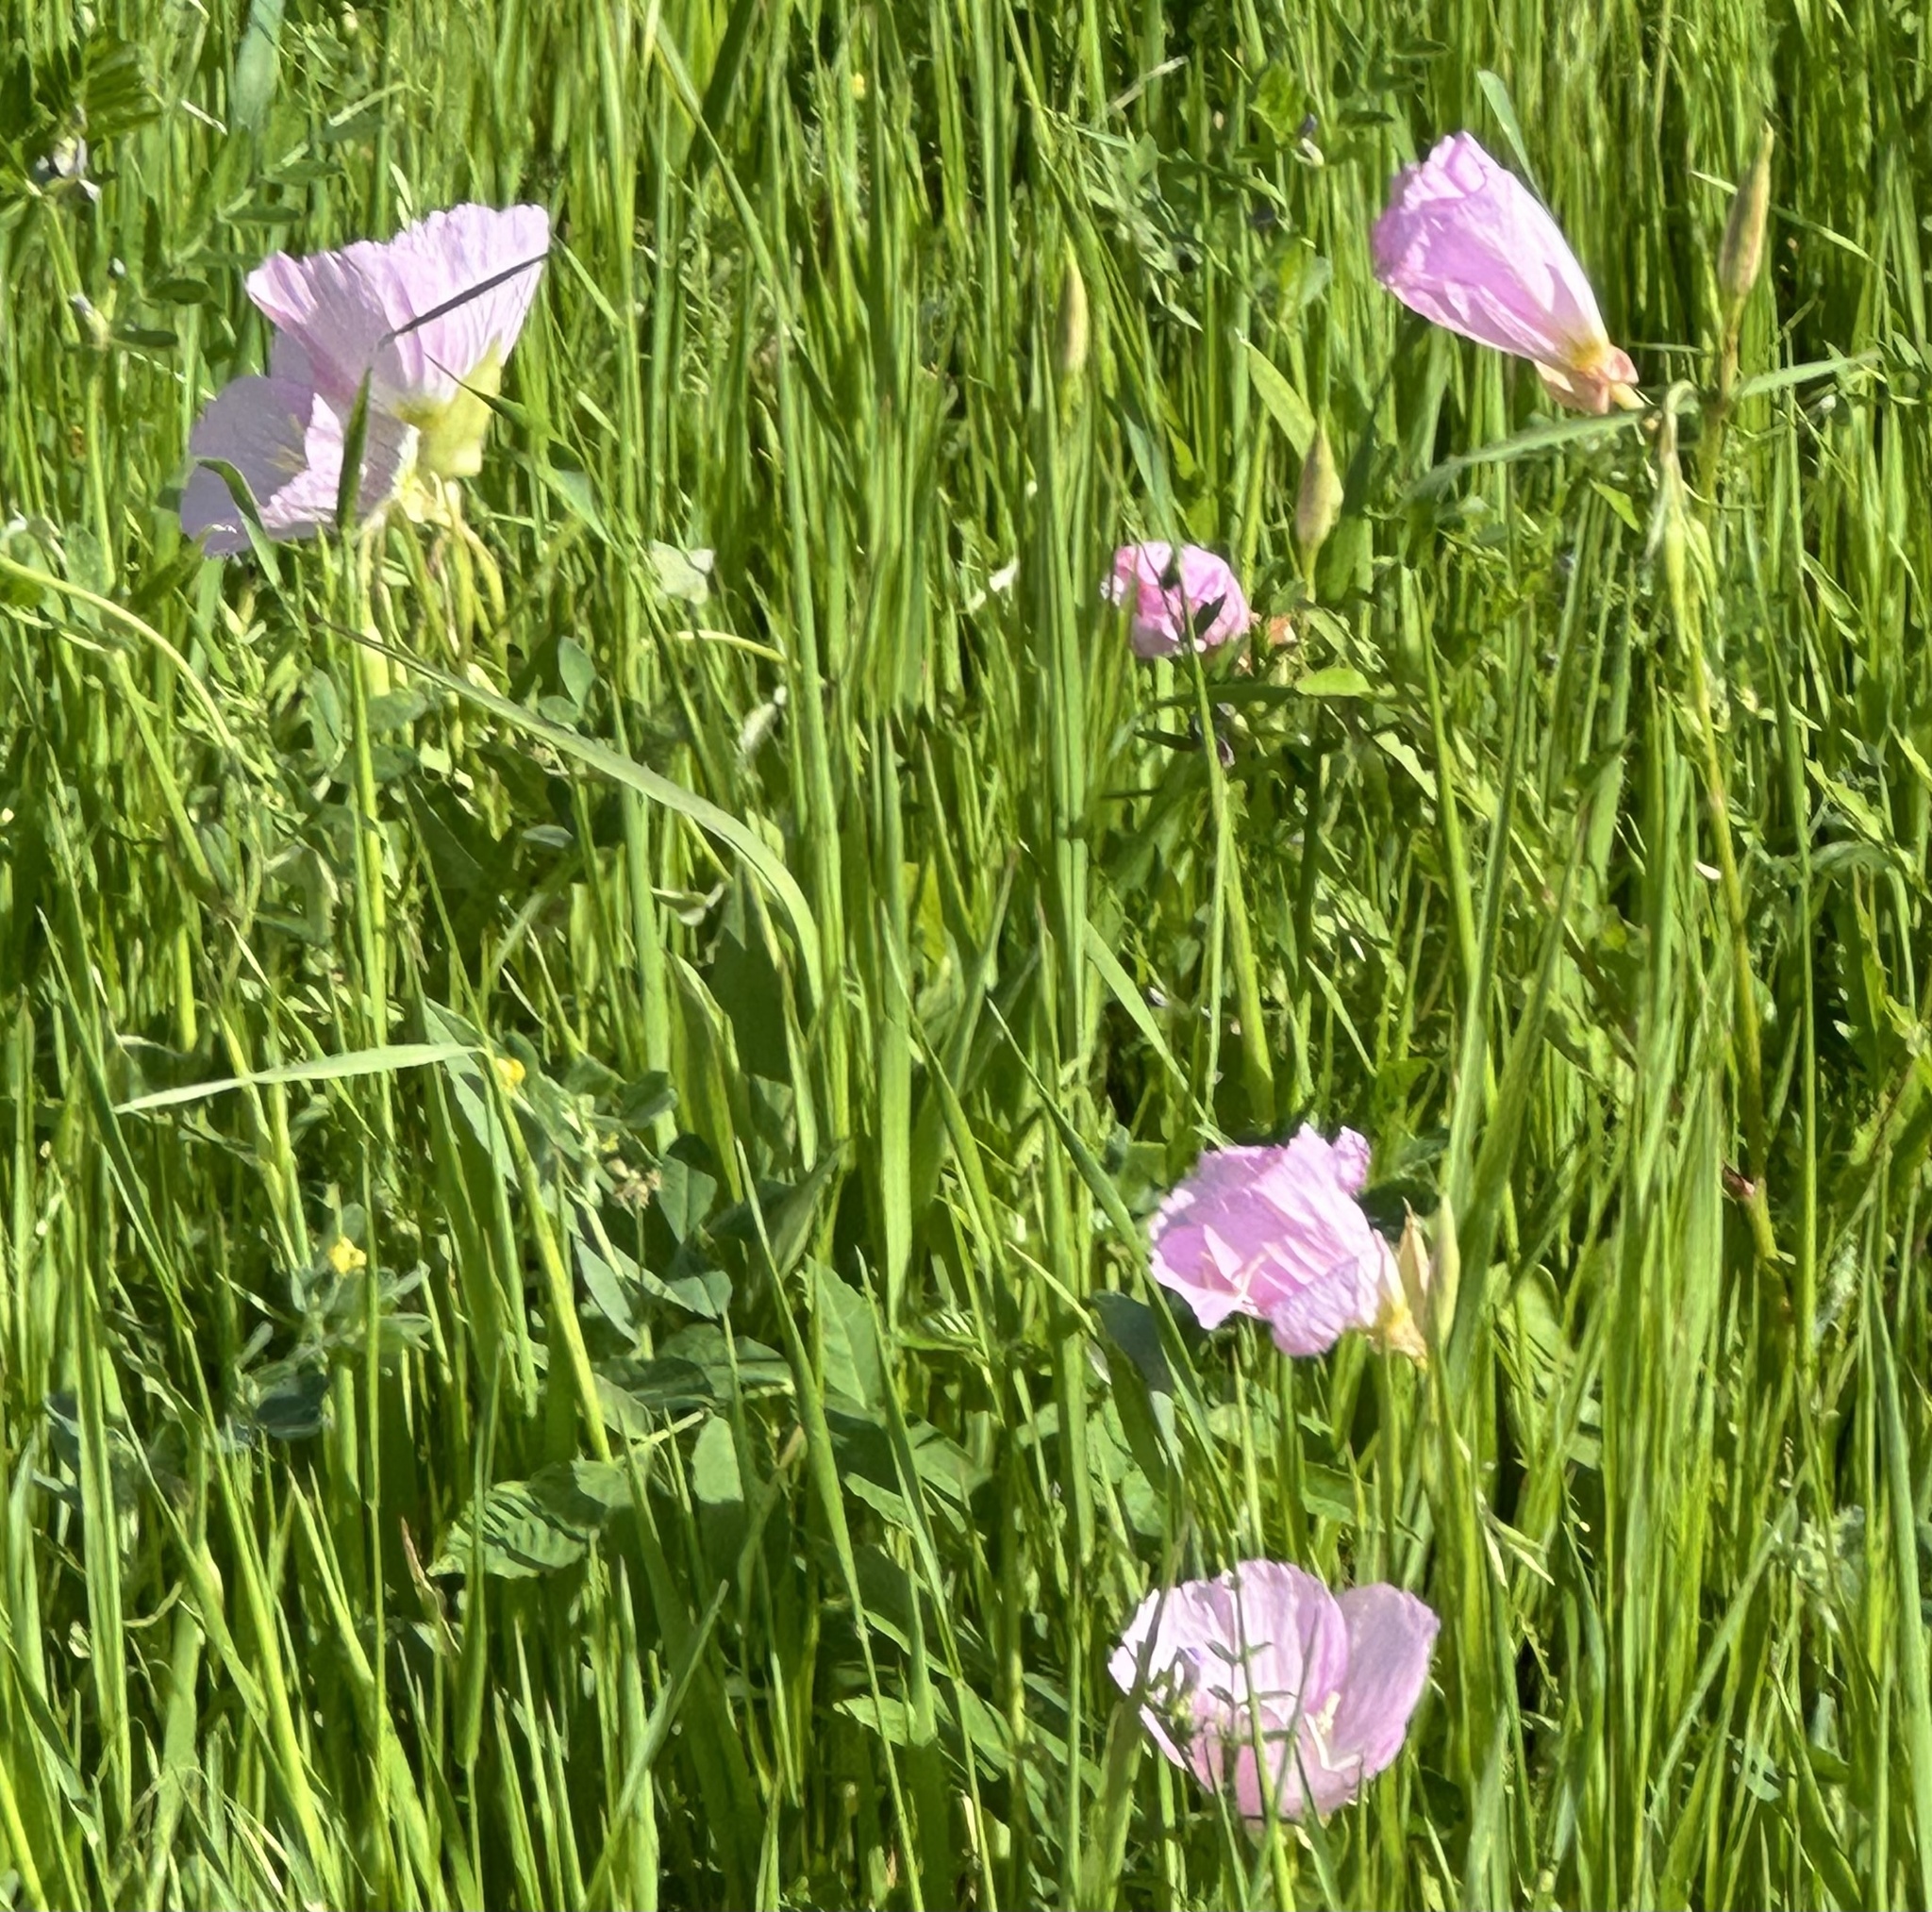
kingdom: Plantae
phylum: Tracheophyta
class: Magnoliopsida
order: Myrtales
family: Onagraceae
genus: Oenothera
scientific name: Oenothera speciosa
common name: White evening-primrose
